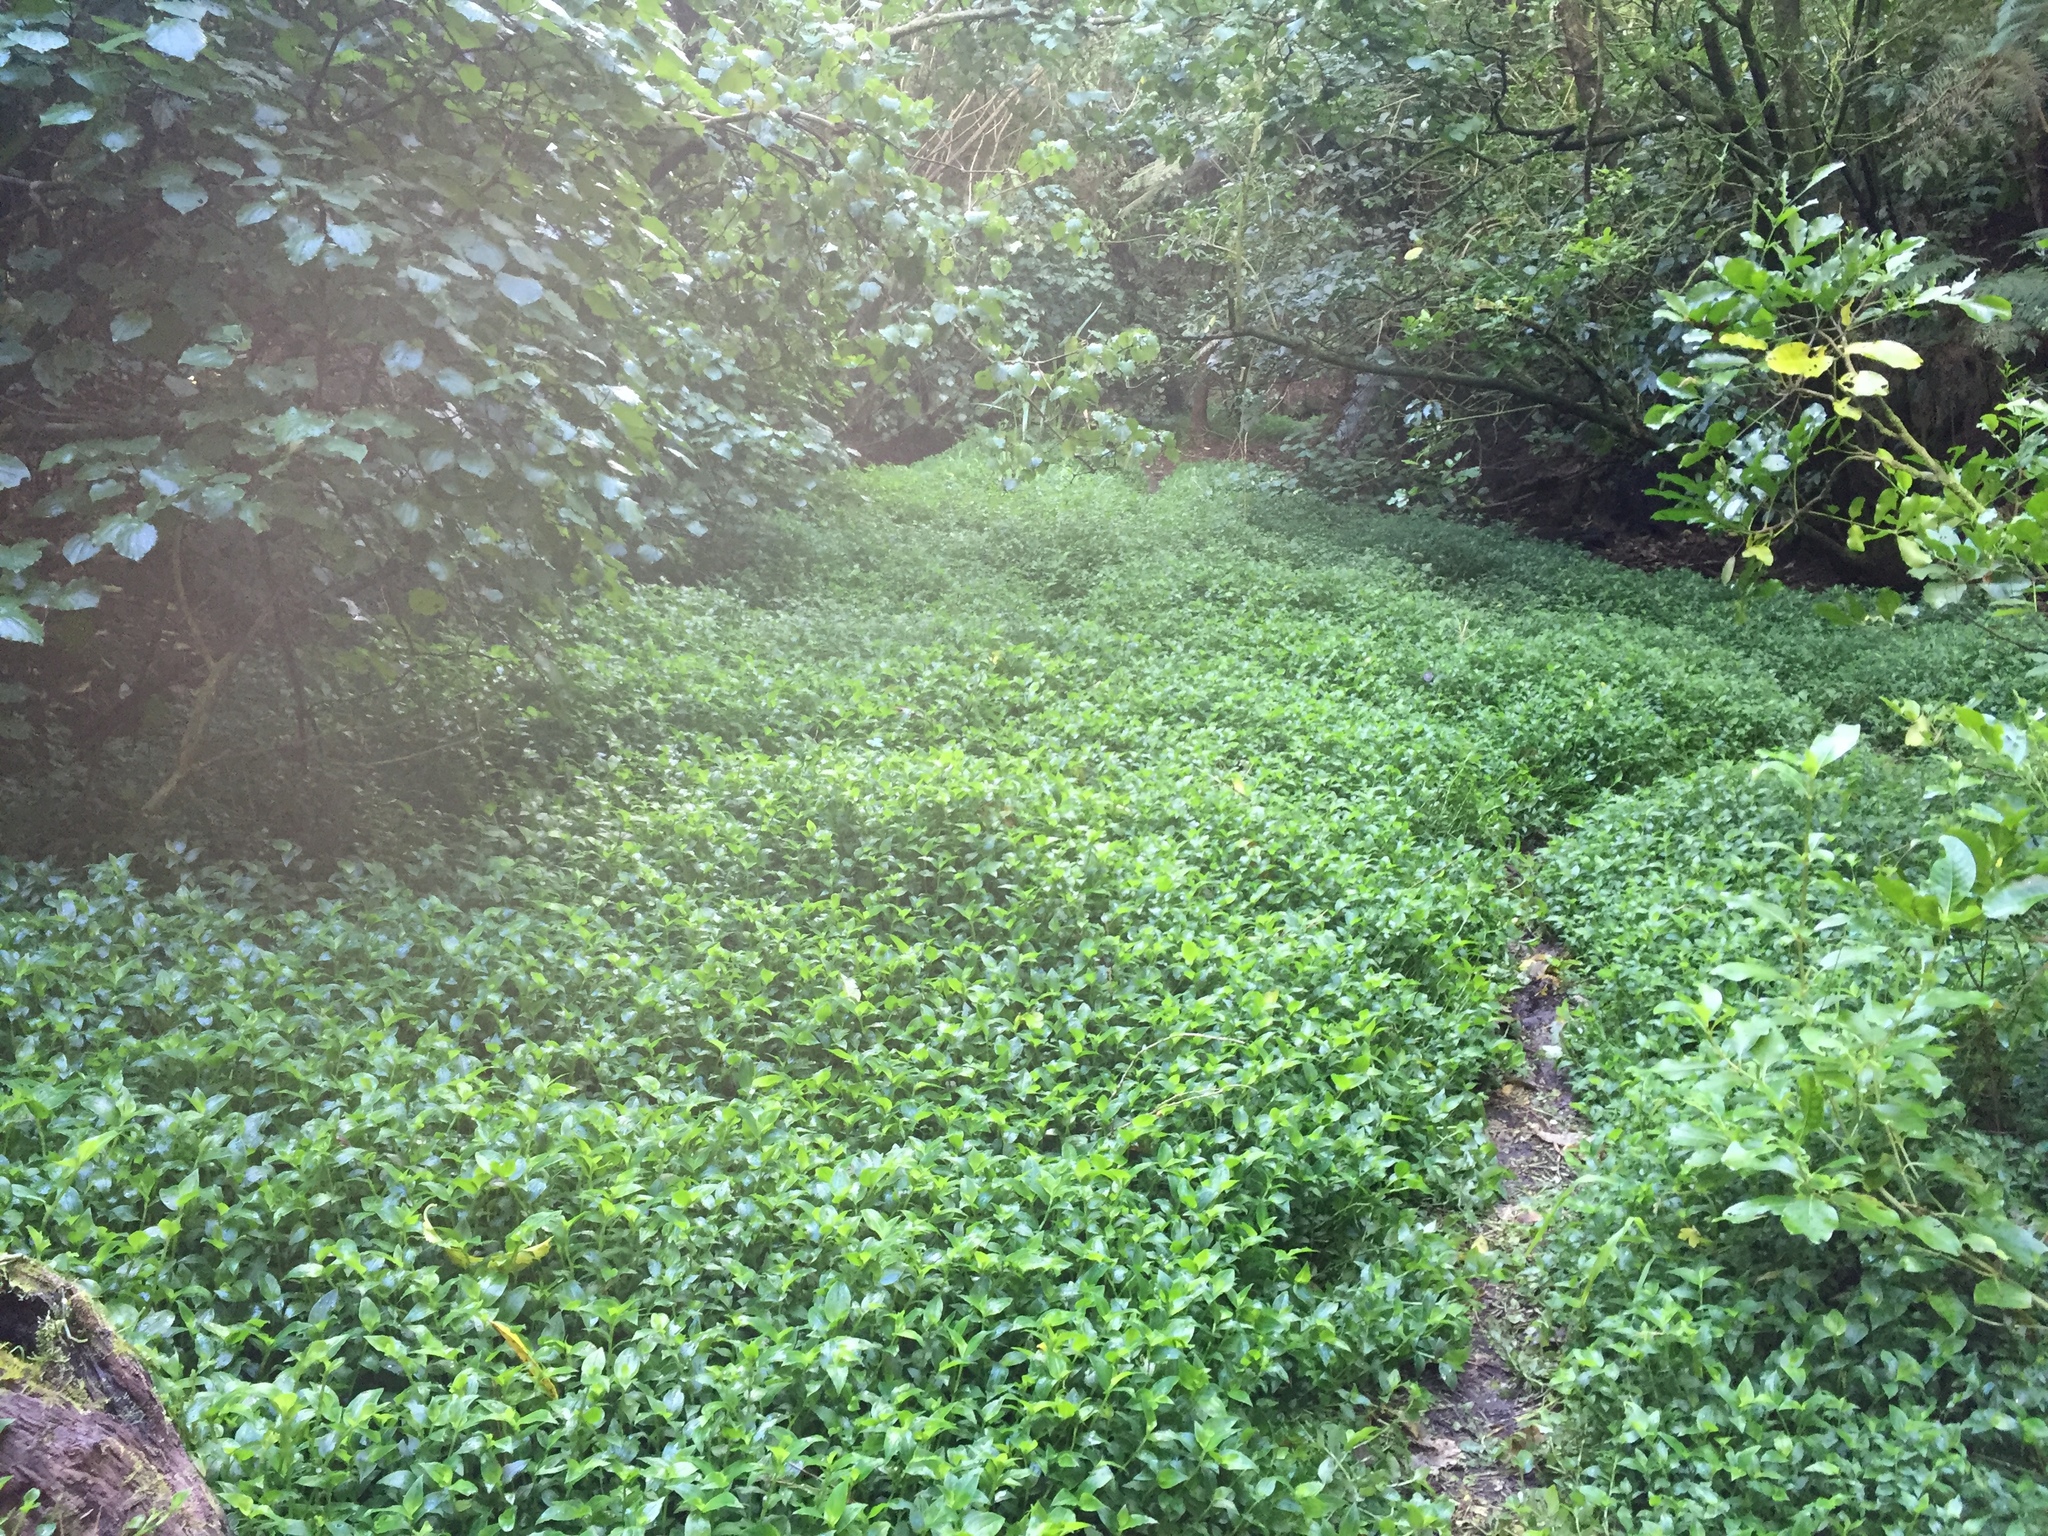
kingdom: Plantae
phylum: Tracheophyta
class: Liliopsida
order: Commelinales
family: Commelinaceae
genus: Tradescantia
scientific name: Tradescantia fluminensis
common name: Wandering-jew
